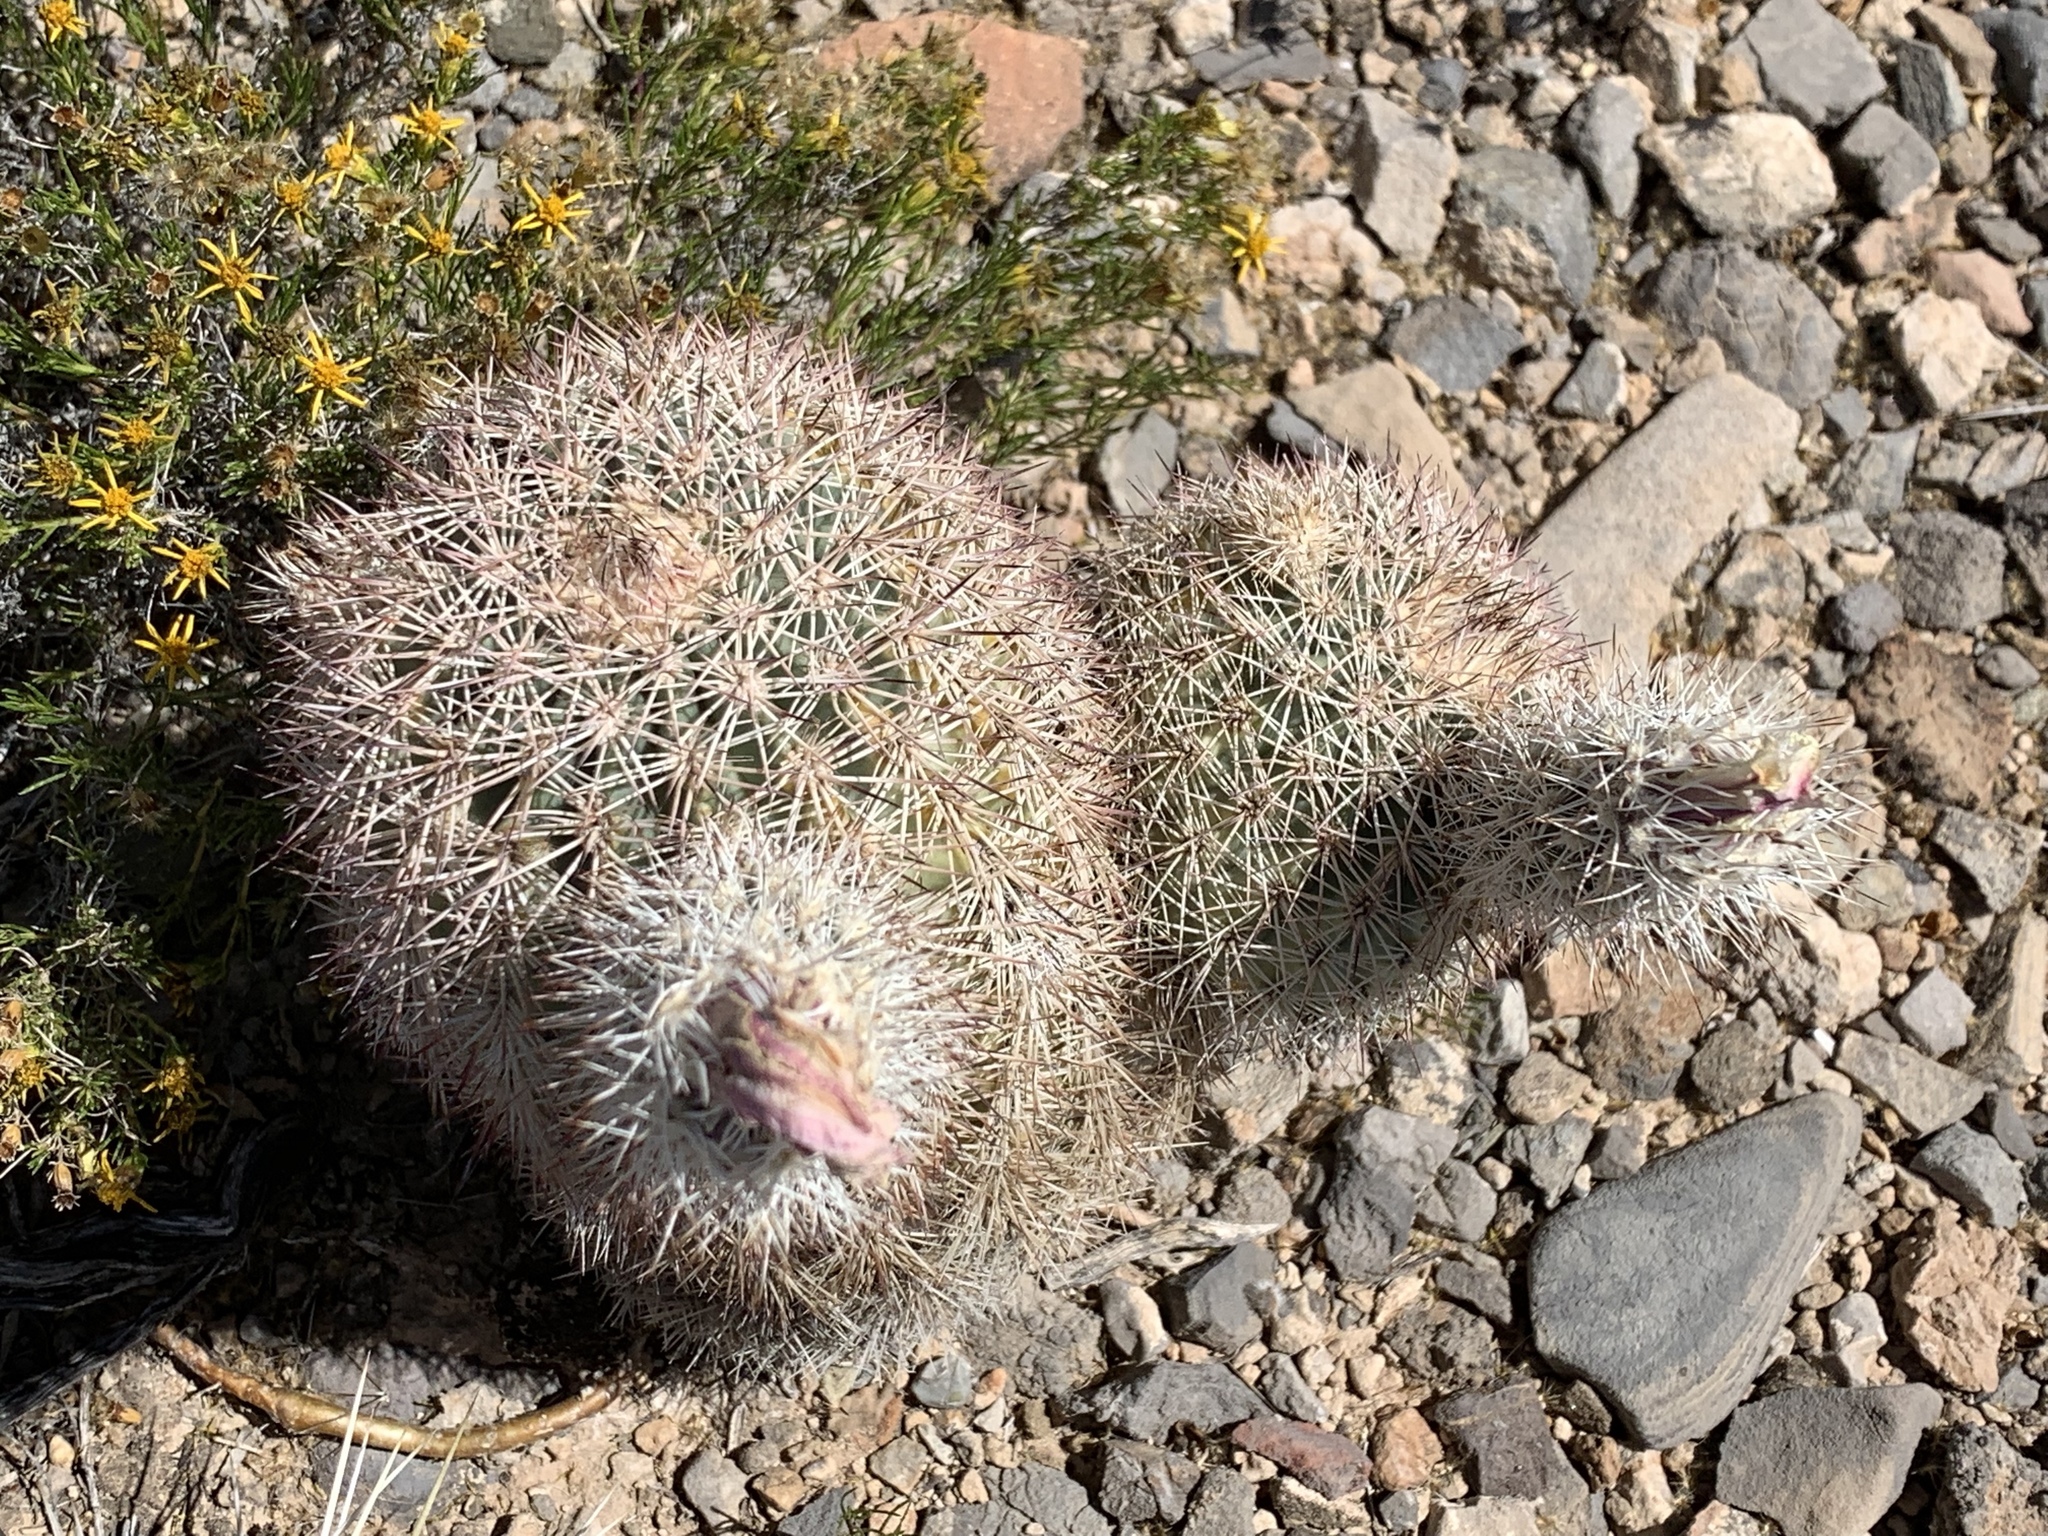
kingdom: Plantae
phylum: Tracheophyta
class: Magnoliopsida
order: Caryophyllales
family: Cactaceae
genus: Echinocereus
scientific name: Echinocereus dasyacanthus
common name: Spiny hedgehog cactus
